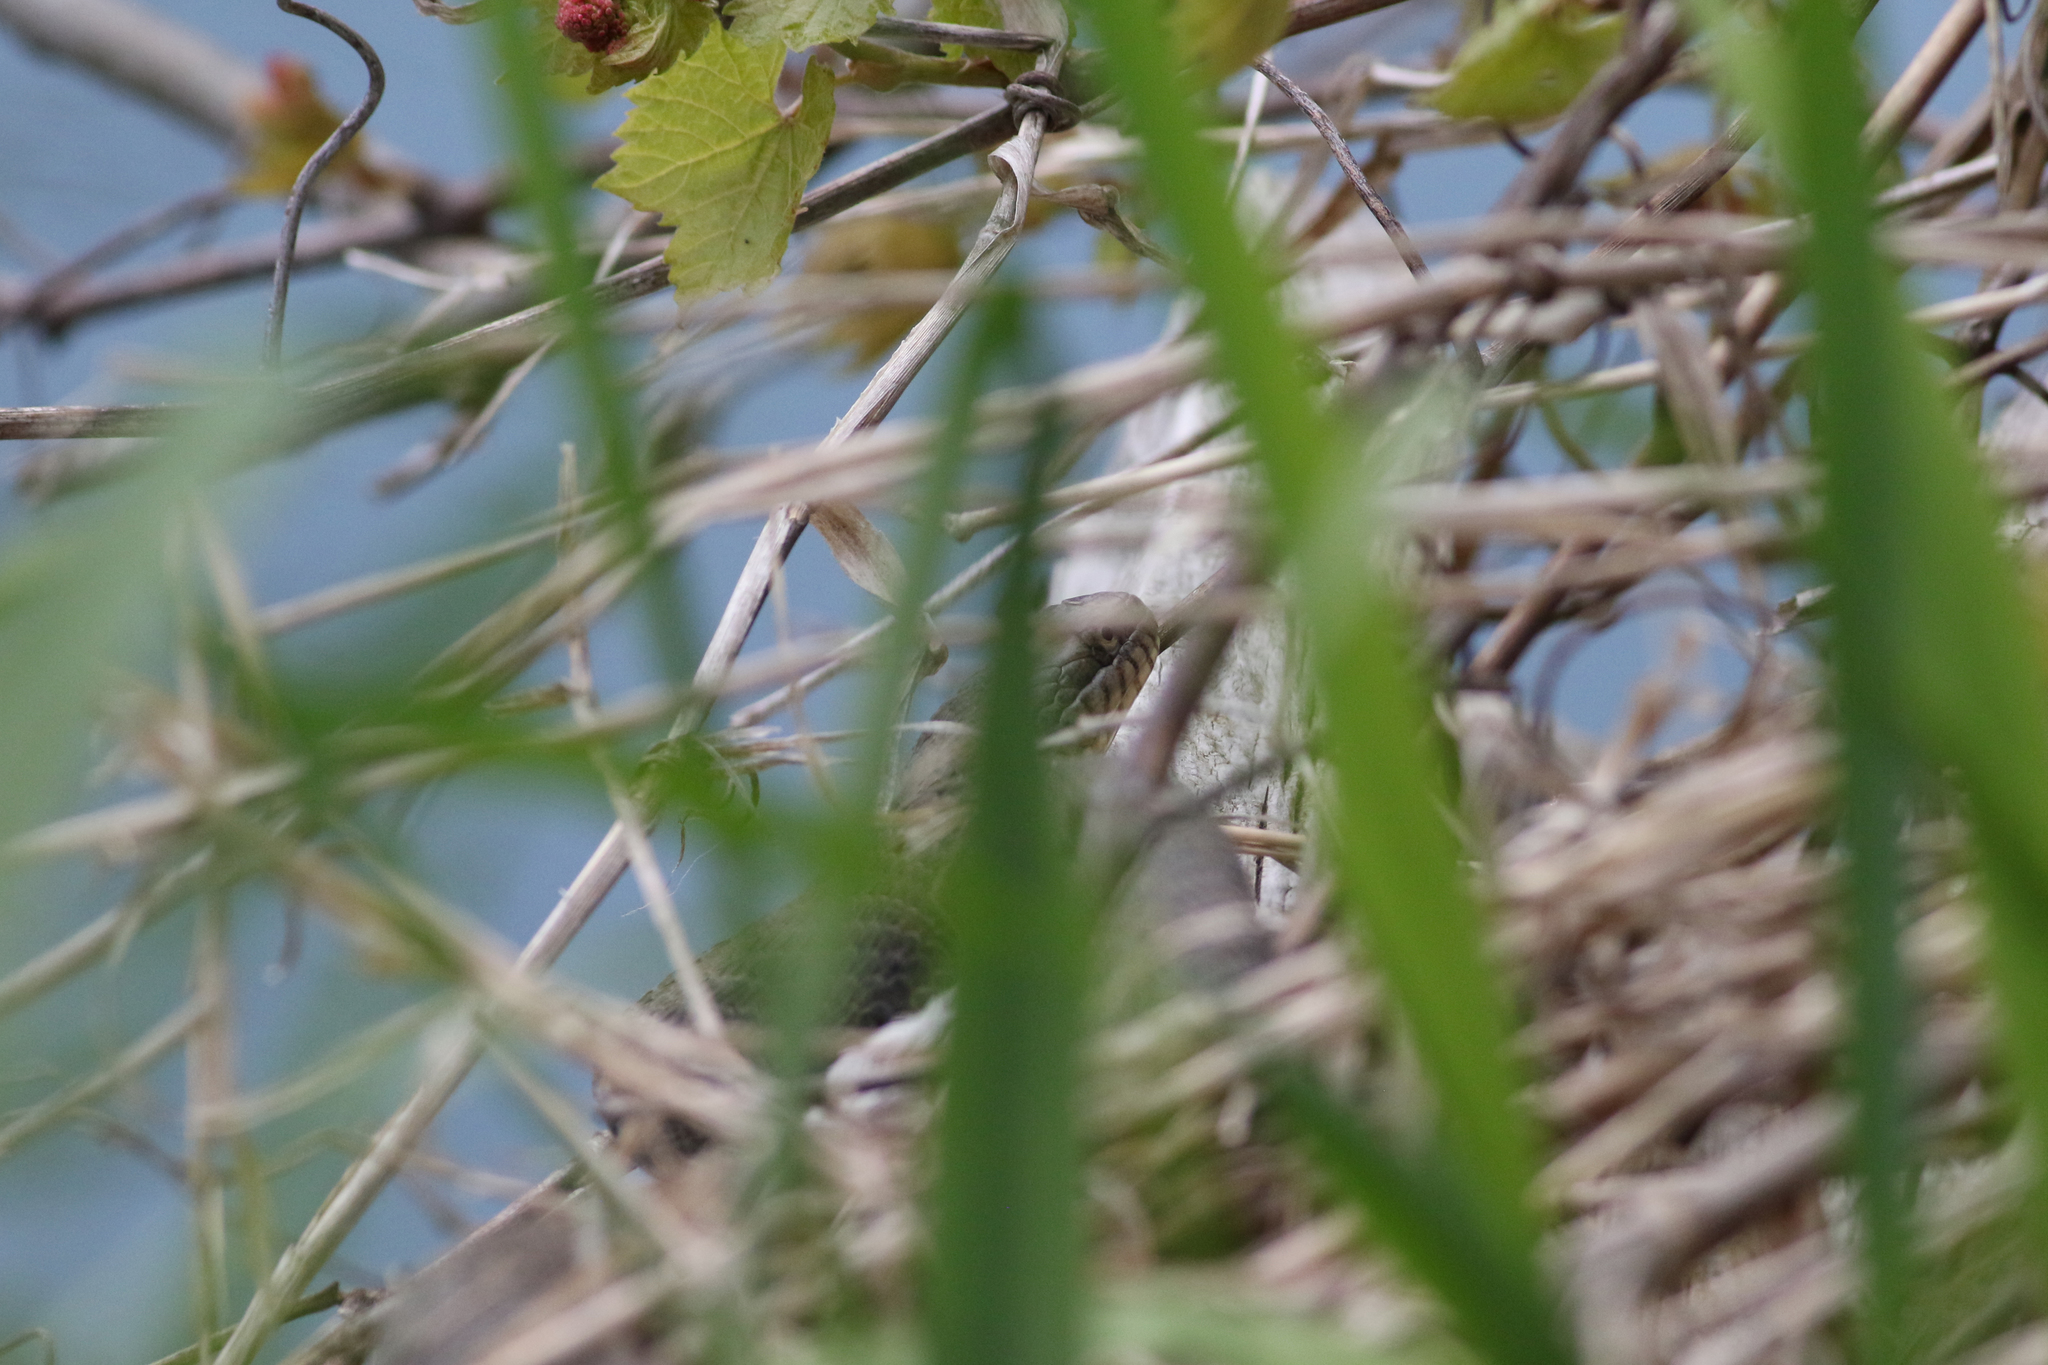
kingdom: Animalia
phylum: Chordata
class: Squamata
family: Colubridae
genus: Nerodia
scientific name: Nerodia sipedon
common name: Northern water snake
